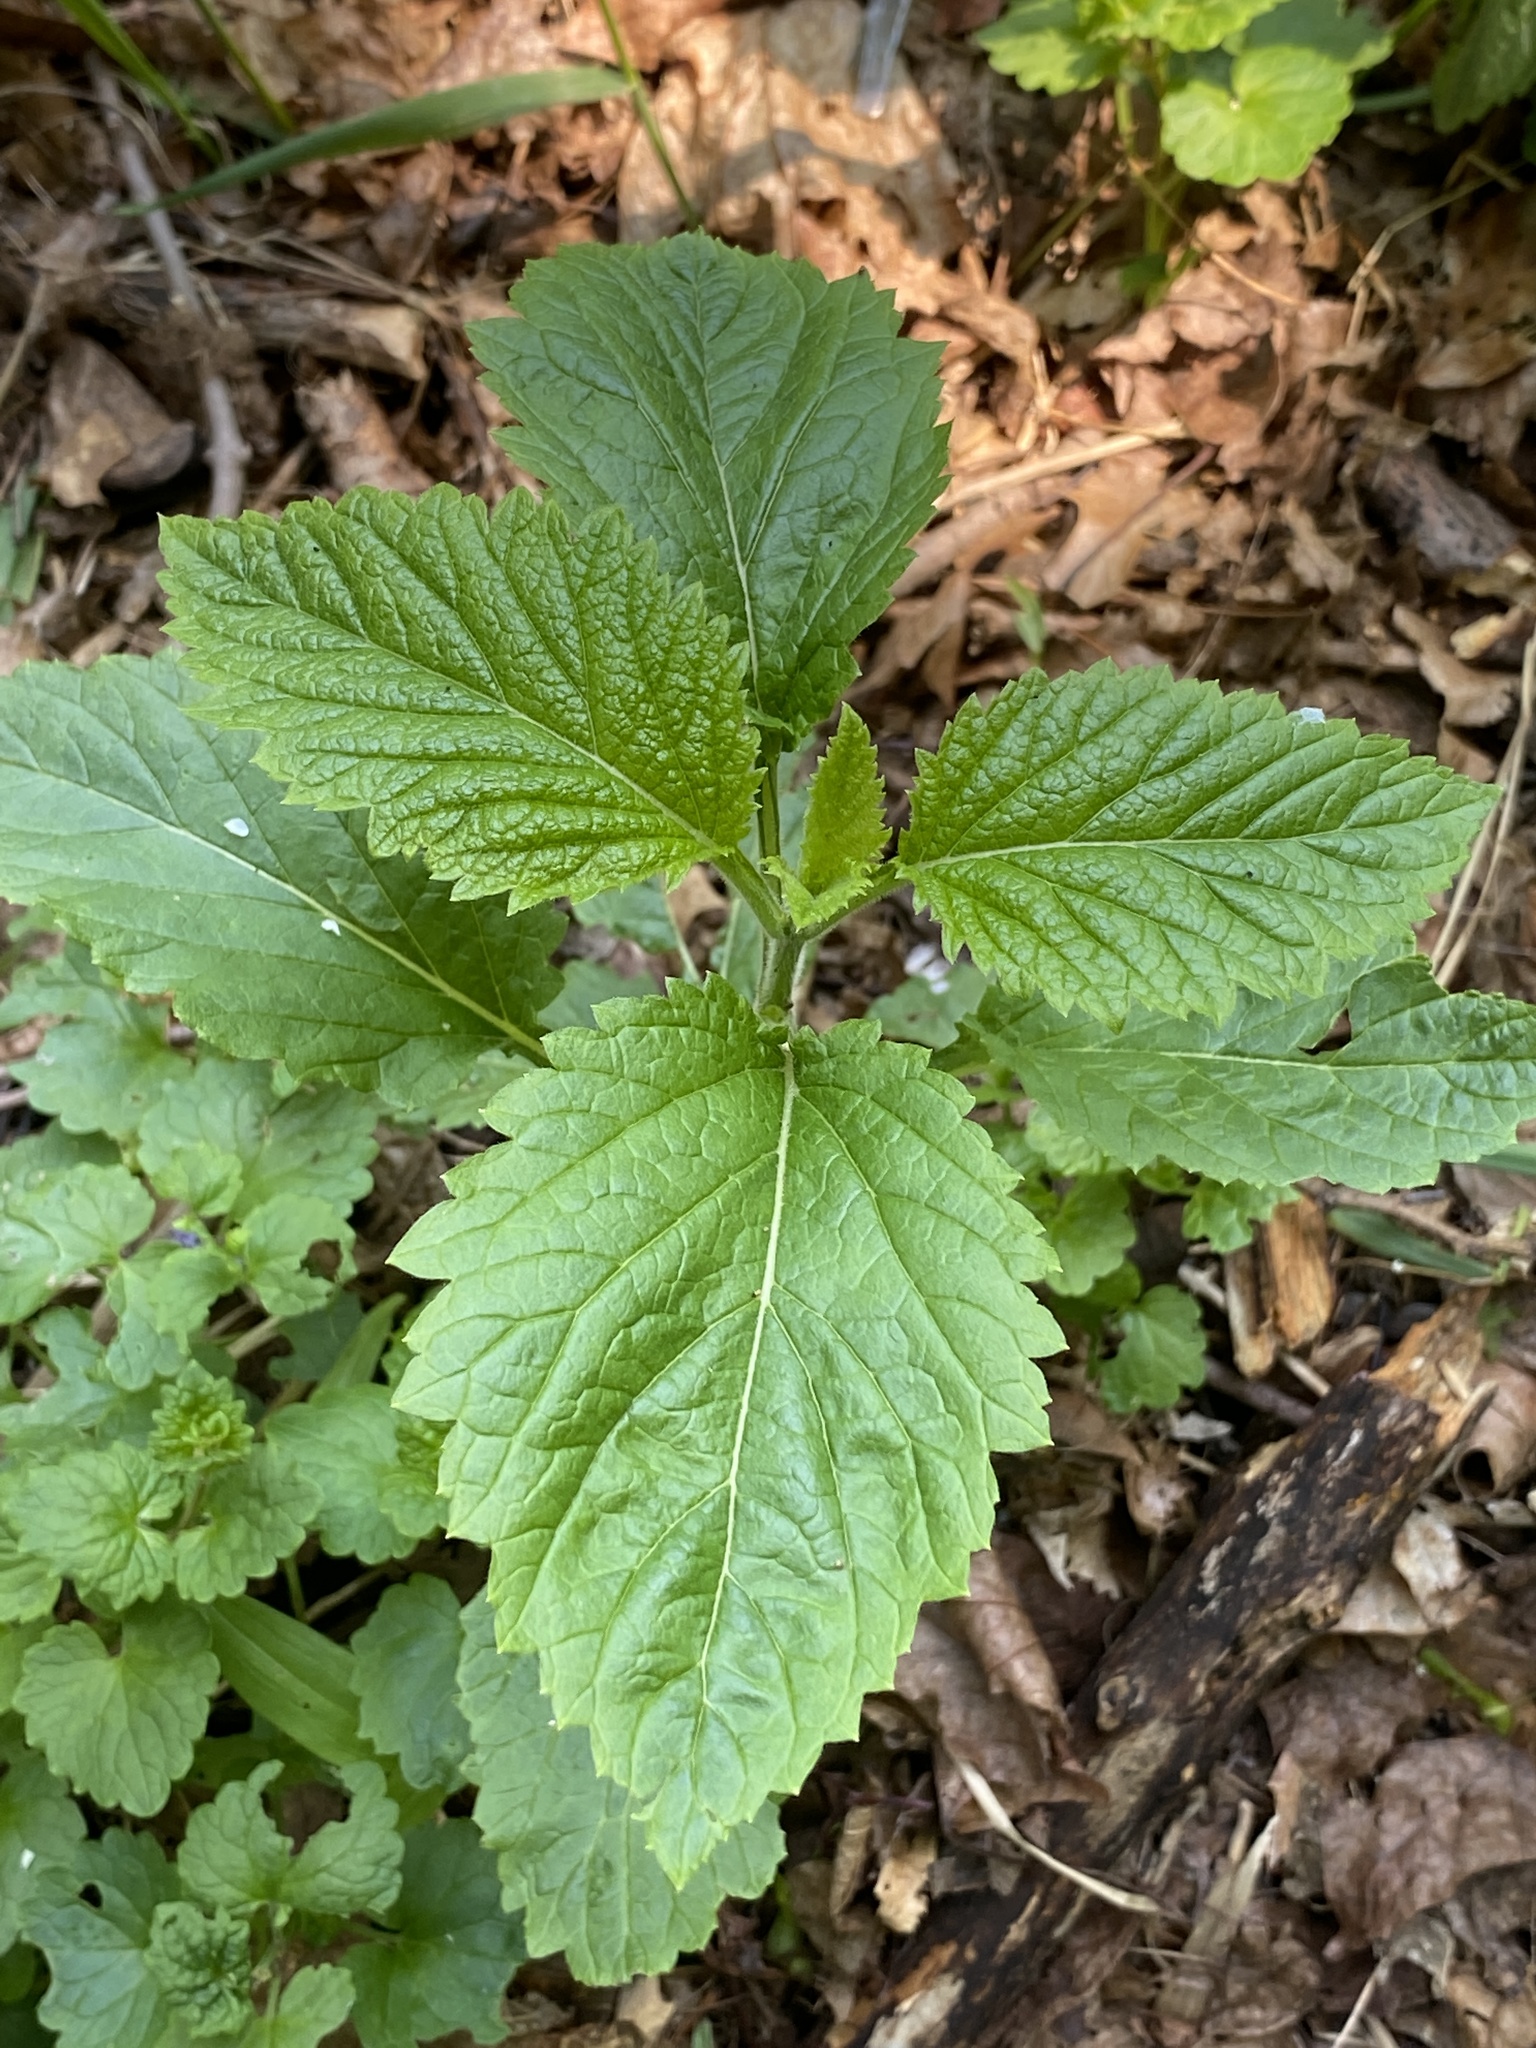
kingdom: Plantae
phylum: Tracheophyta
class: Magnoliopsida
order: Lamiales
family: Verbenaceae
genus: Verbena
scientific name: Verbena urticifolia
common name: Nettle-leaved vervain
